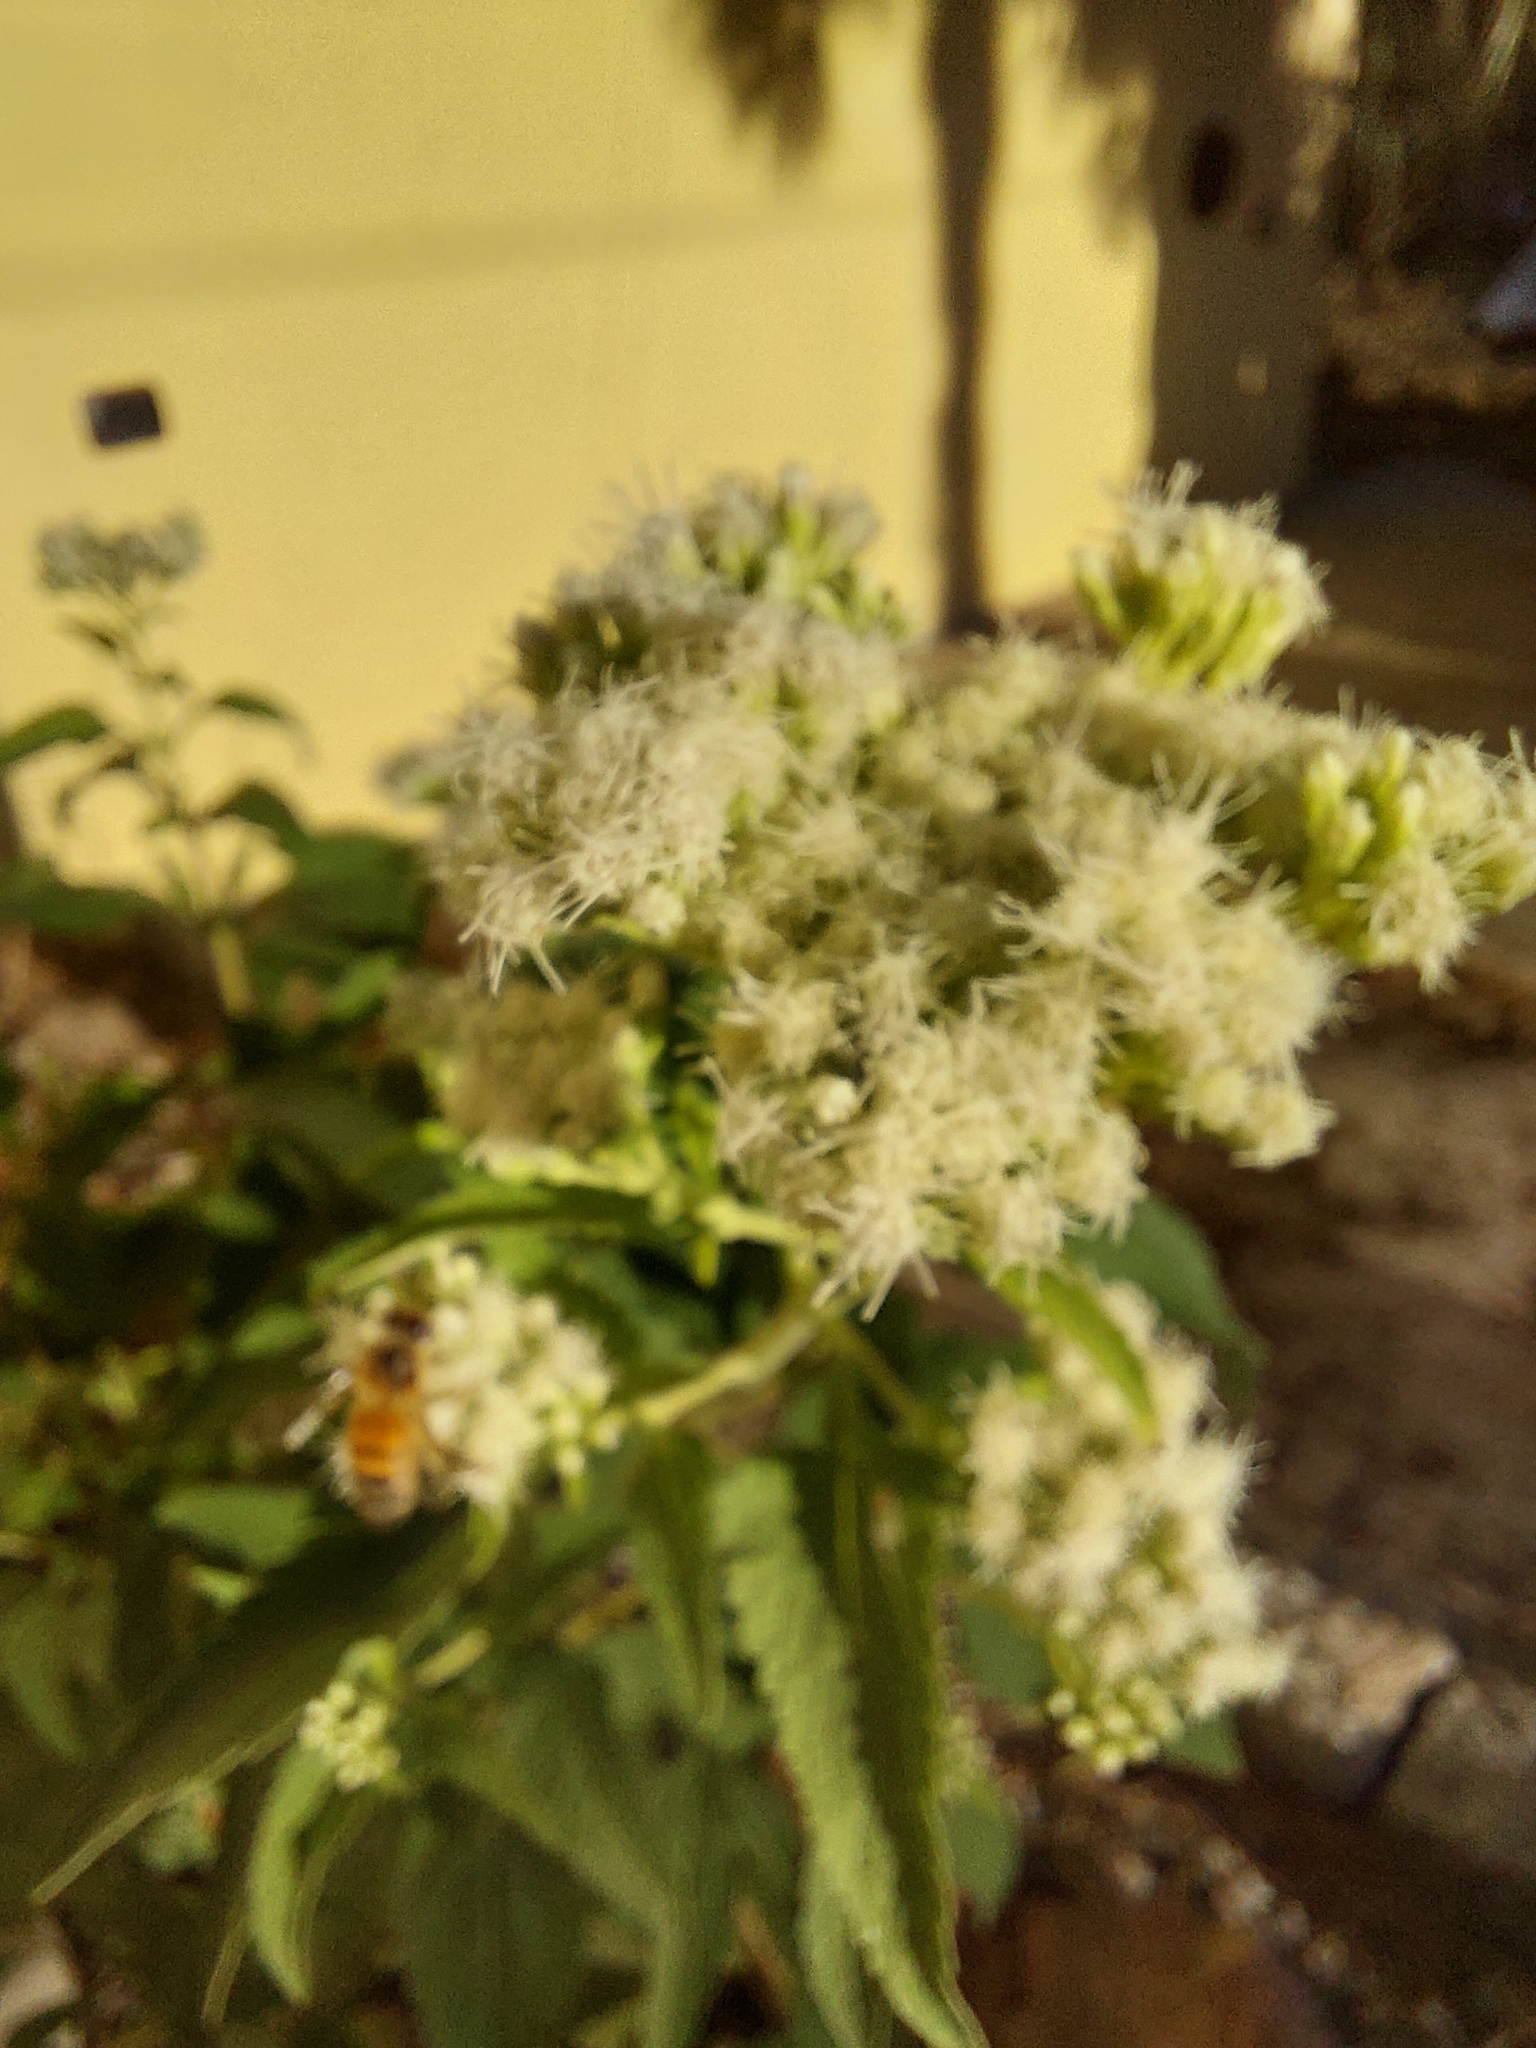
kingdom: Plantae
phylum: Tracheophyta
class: Magnoliopsida
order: Asterales
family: Asteraceae
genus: Austroeupatorium
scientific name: Austroeupatorium inulifolium
